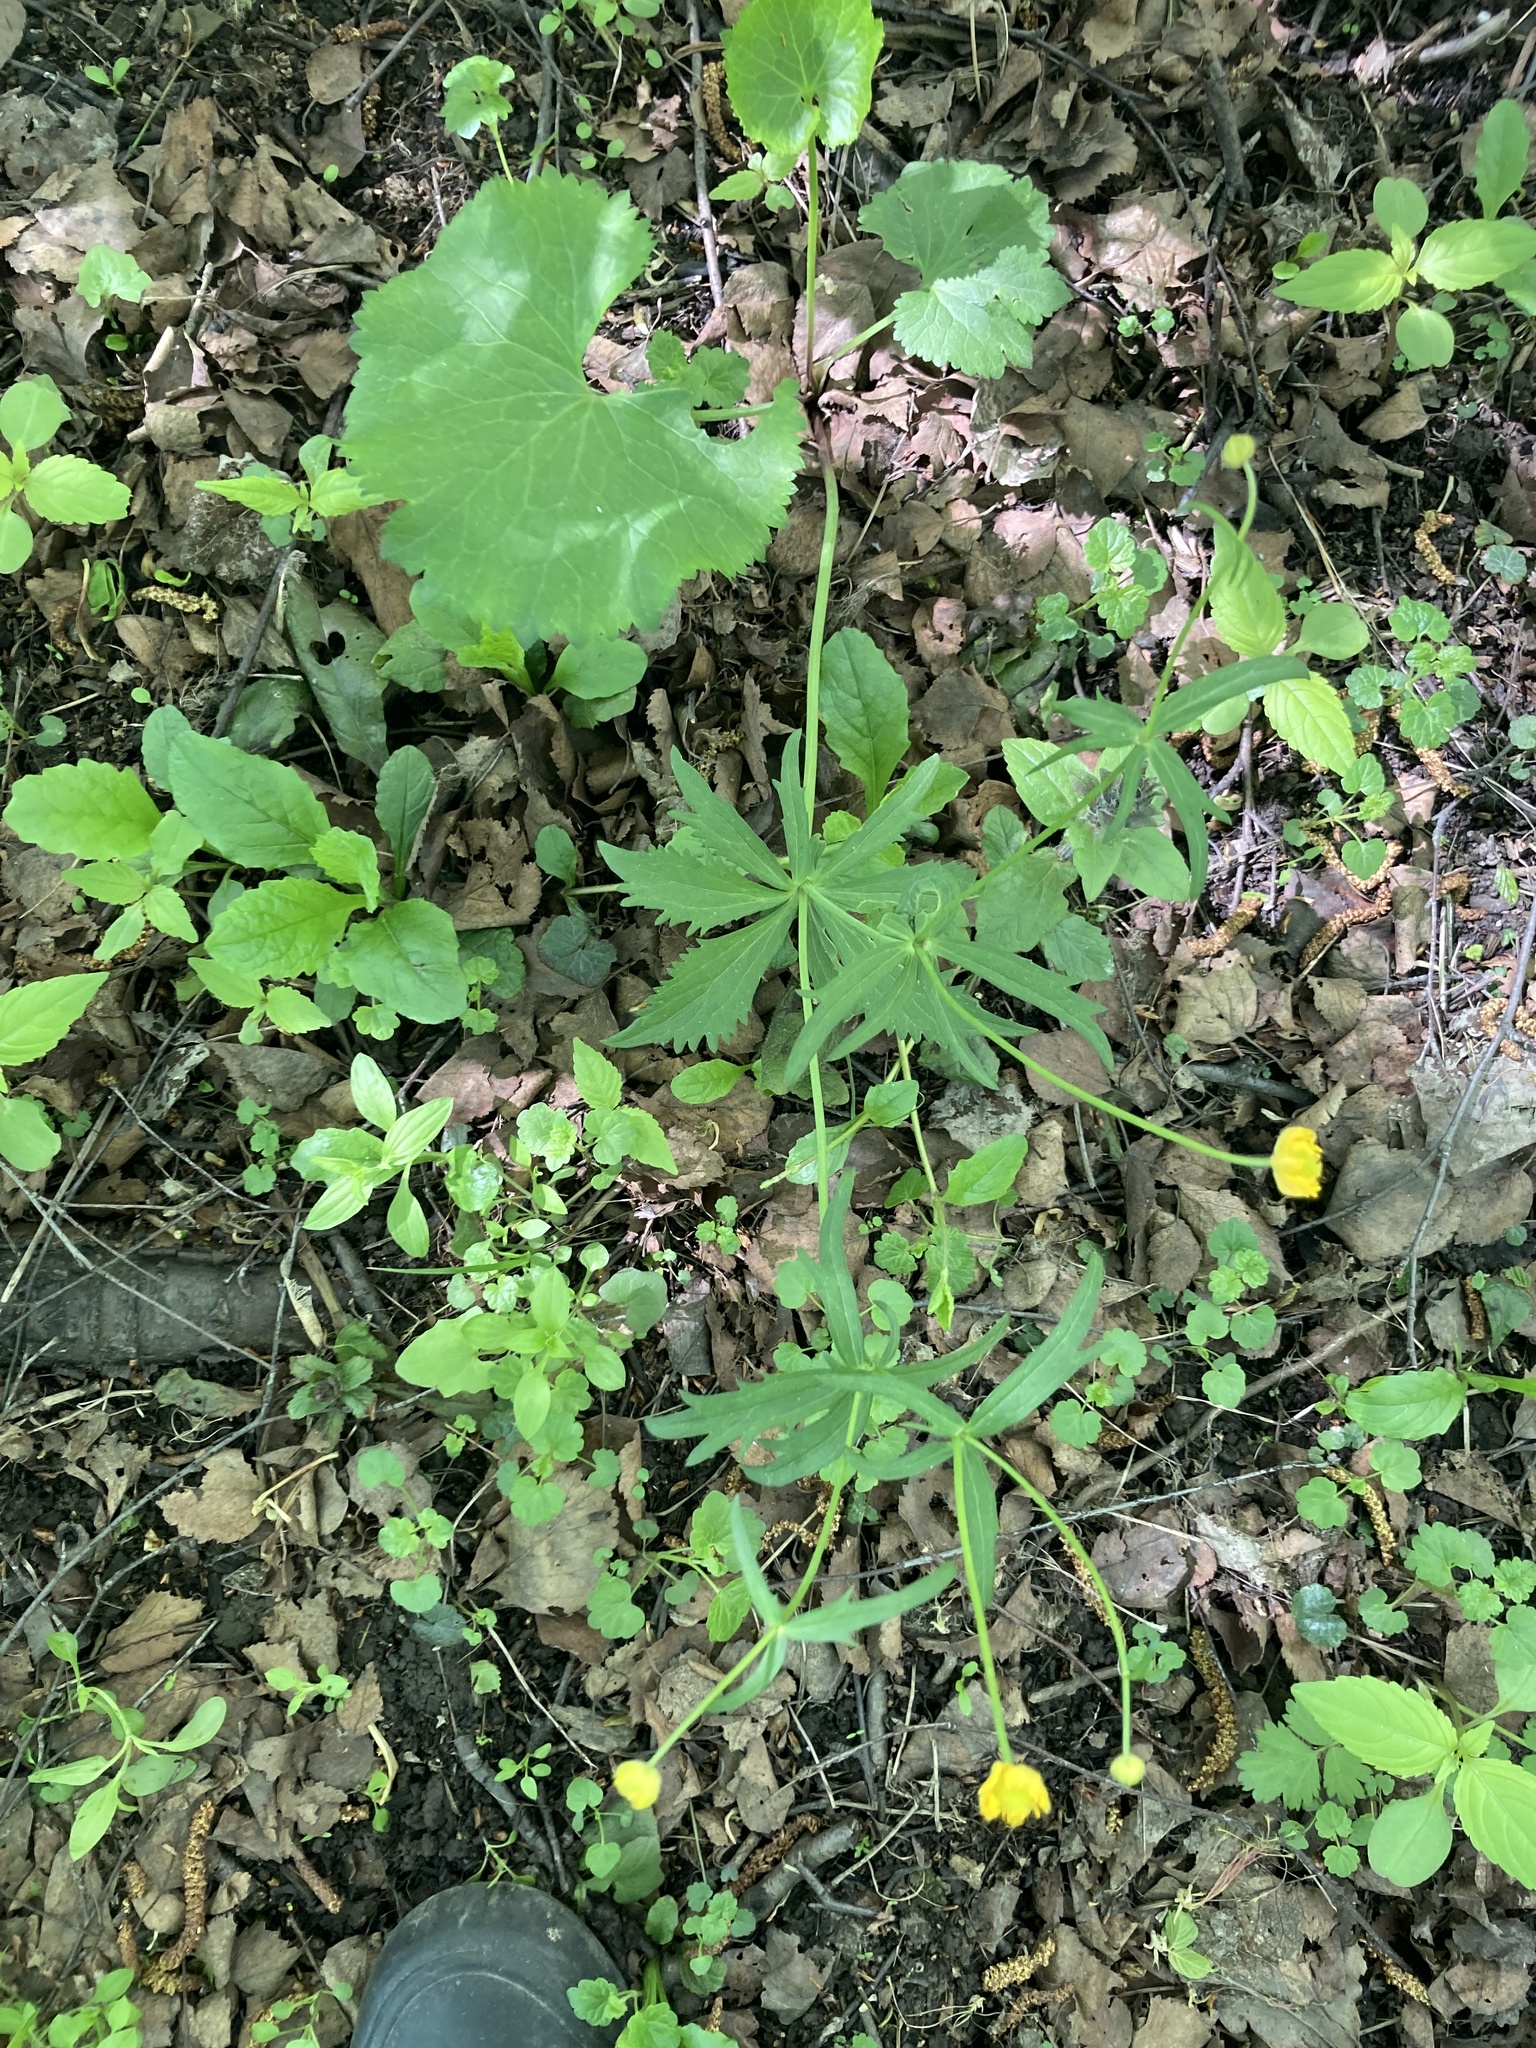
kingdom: Plantae
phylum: Tracheophyta
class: Magnoliopsida
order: Ranunculales
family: Ranunculaceae
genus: Ranunculus
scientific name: Ranunculus cassubicus
